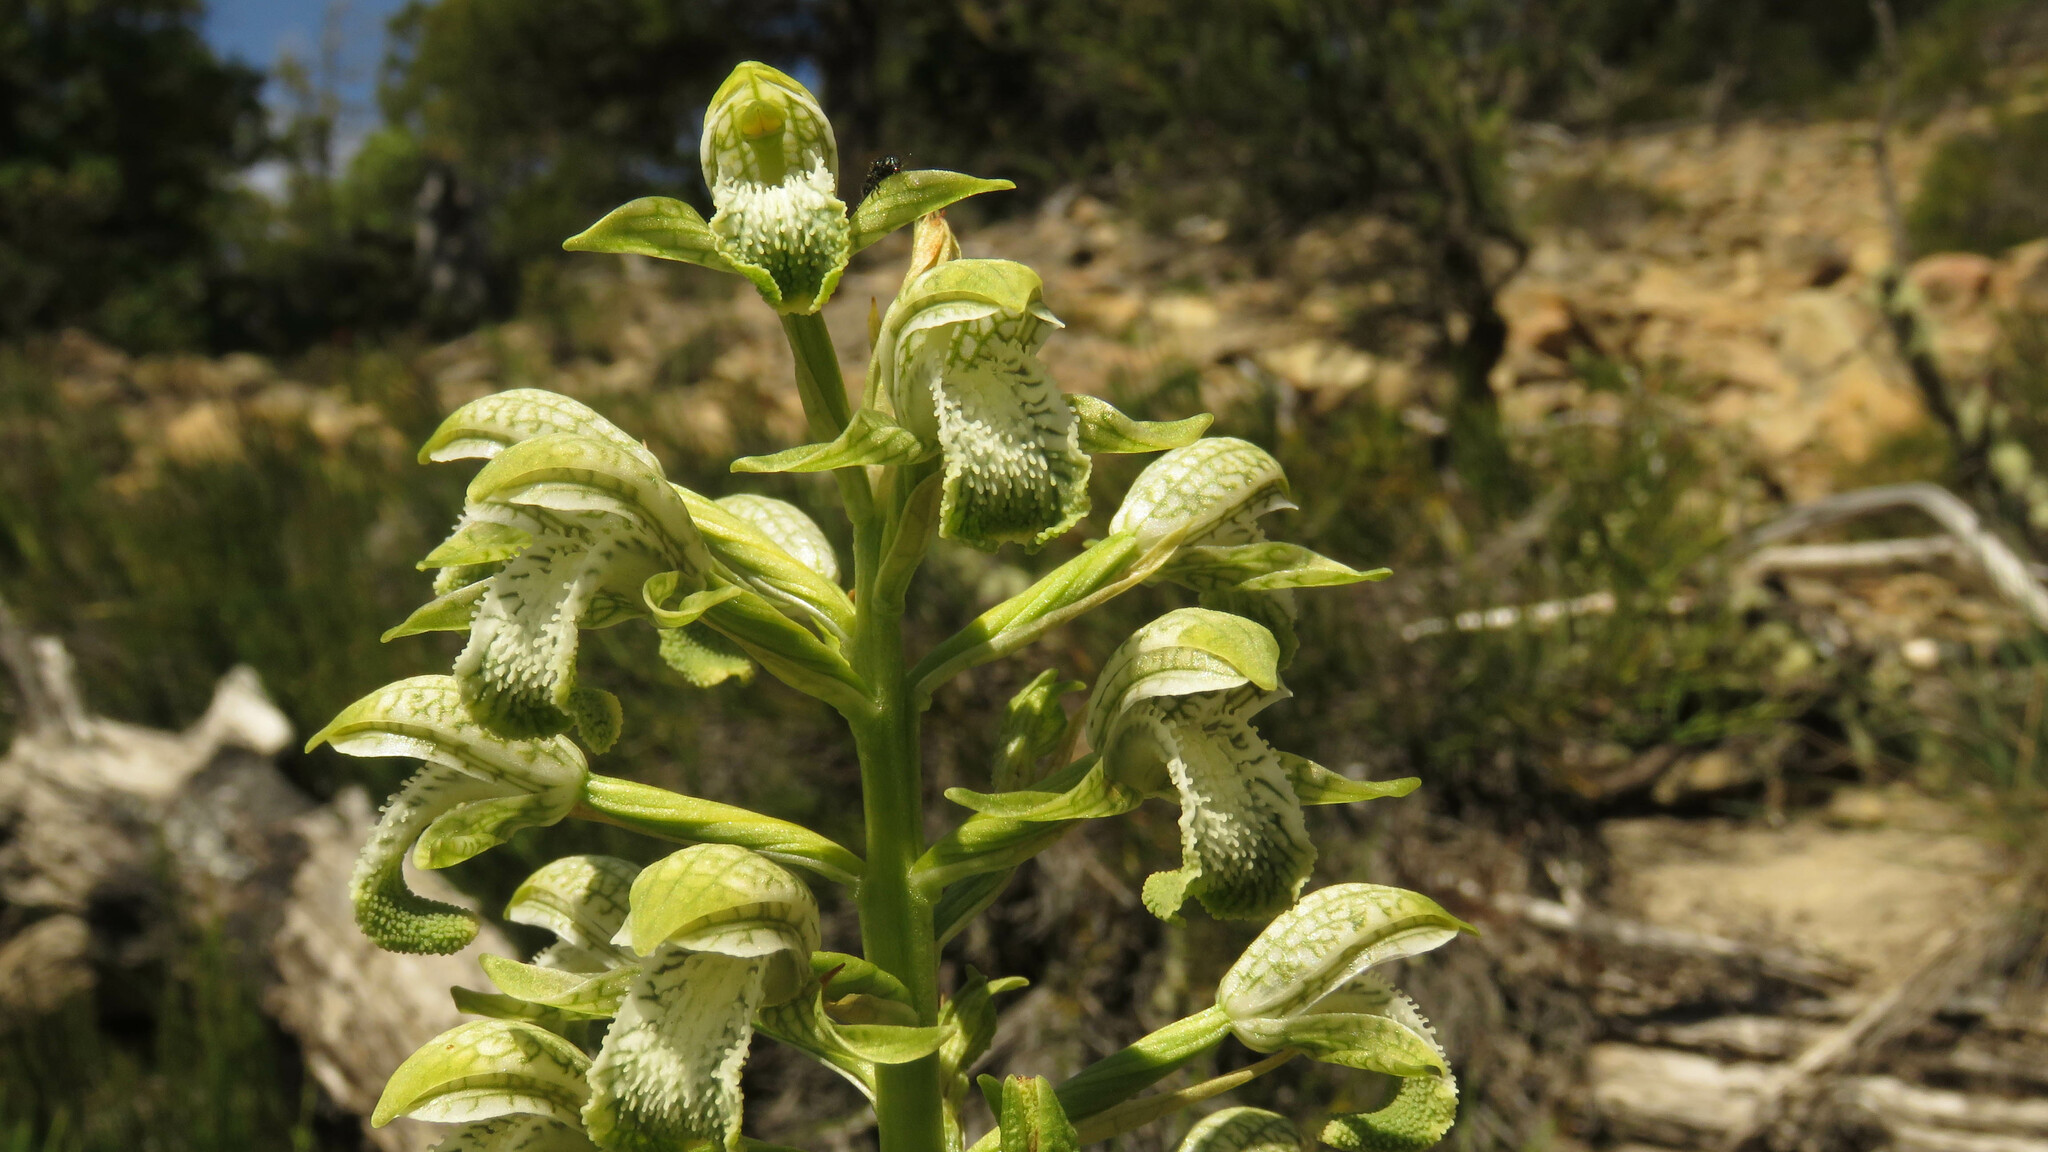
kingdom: Plantae
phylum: Tracheophyta
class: Liliopsida
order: Asparagales
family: Orchidaceae
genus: Chloraea
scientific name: Chloraea cylindrostachya
